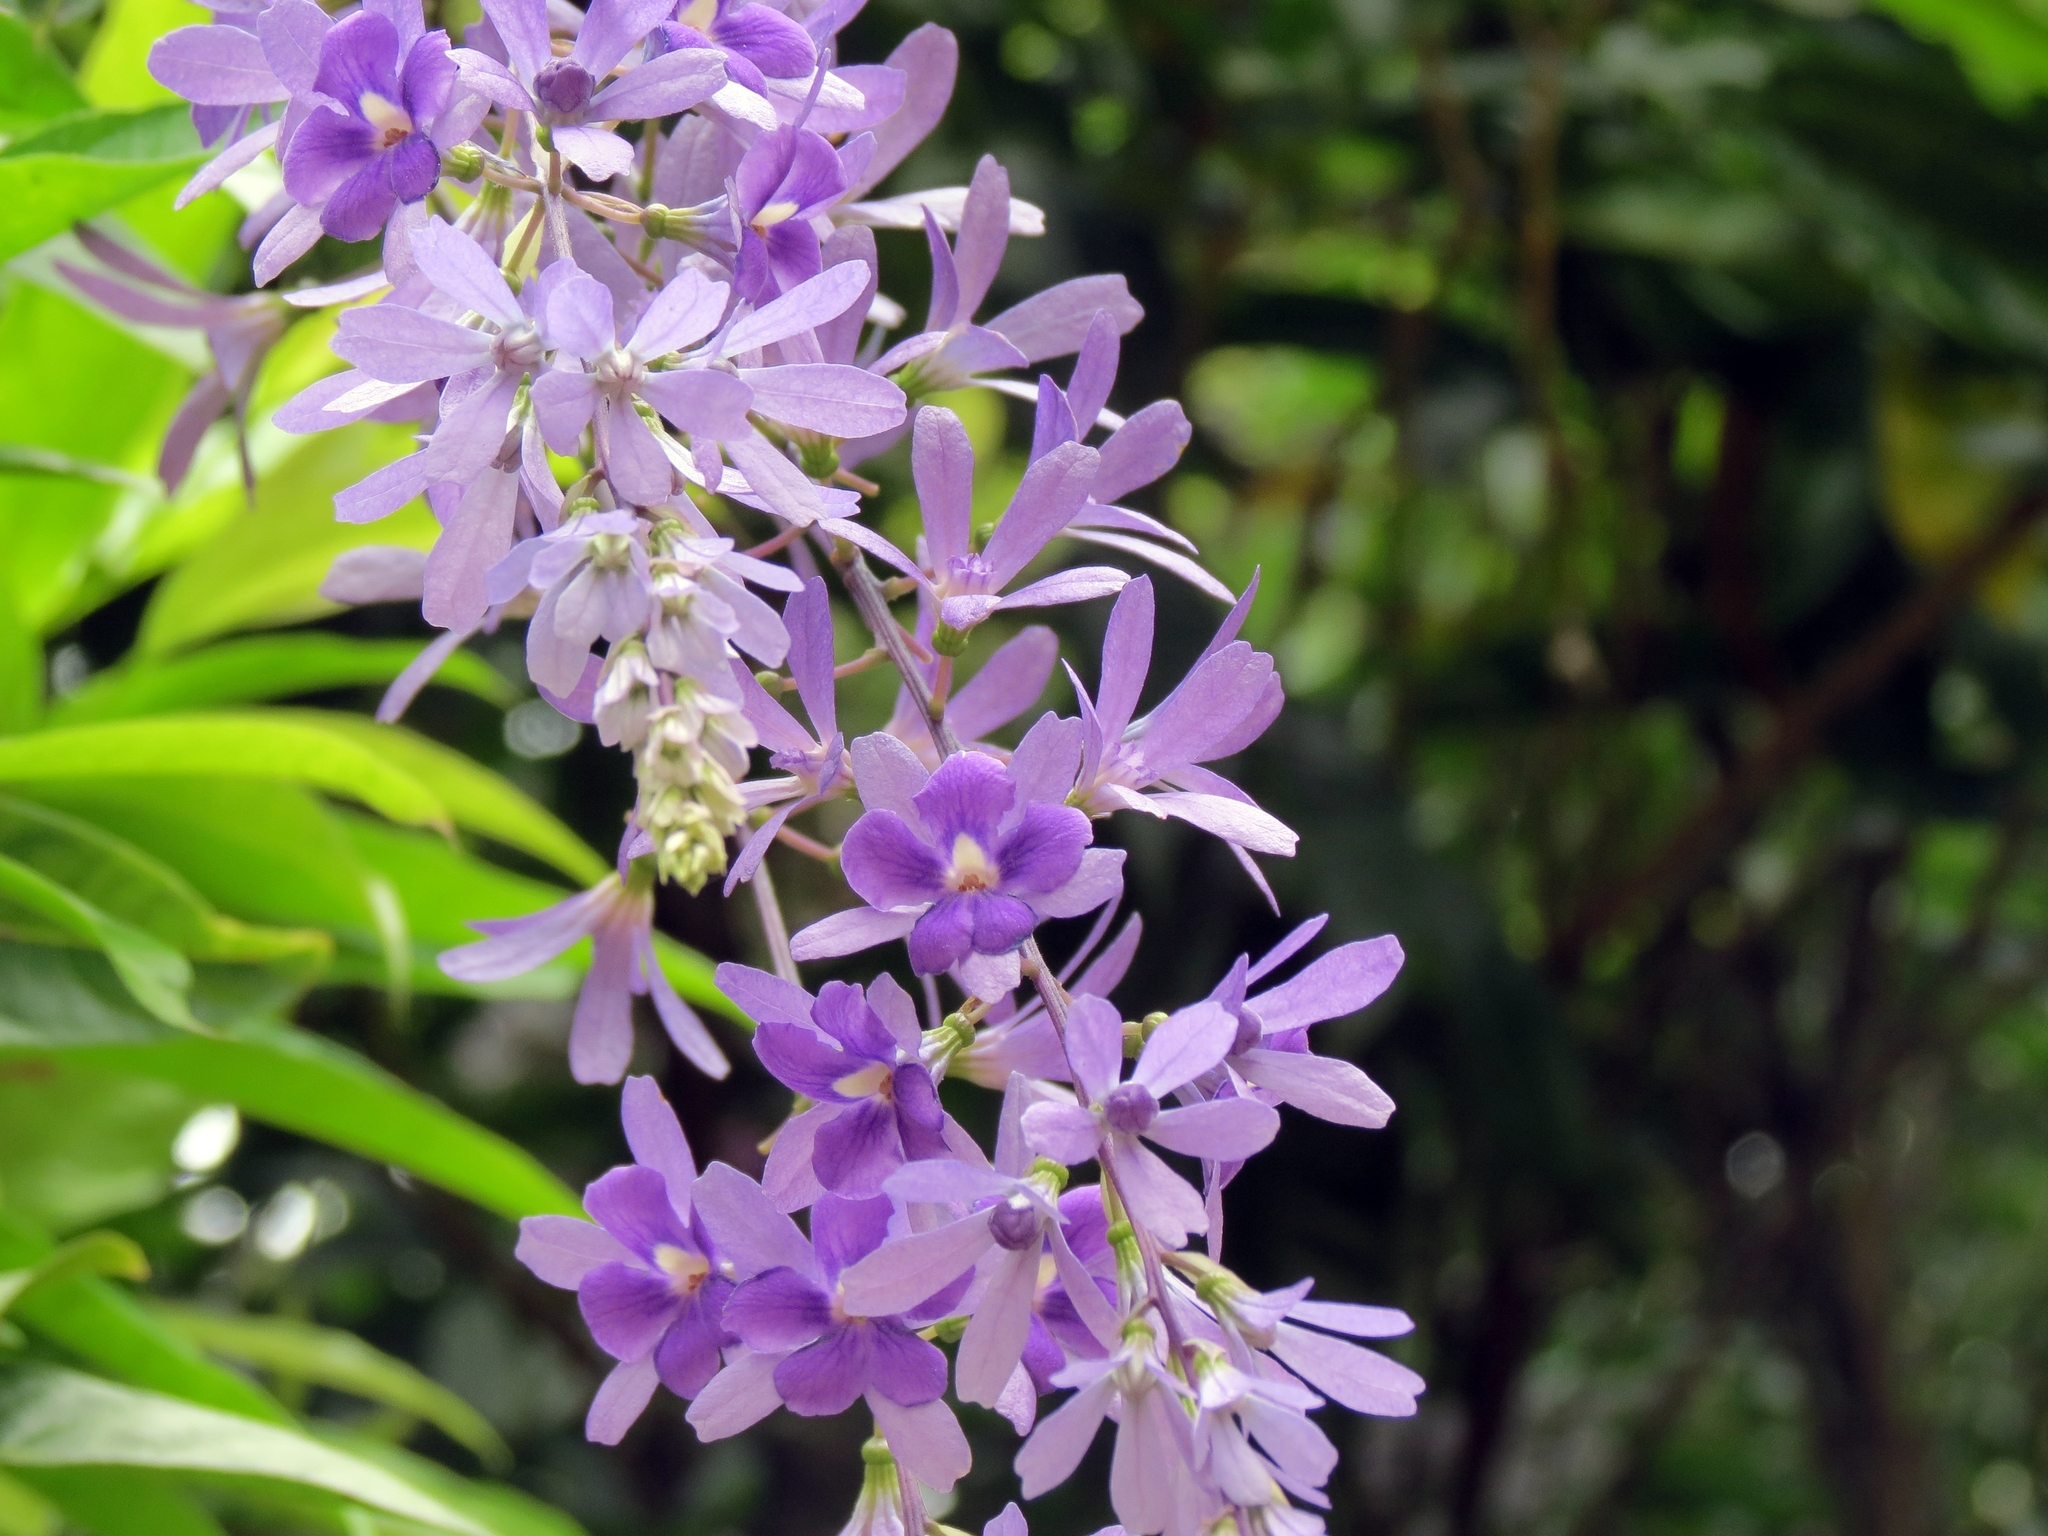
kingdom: Plantae
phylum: Tracheophyta
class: Magnoliopsida
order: Lamiales
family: Verbenaceae
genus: Petrea
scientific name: Petrea rugosa
